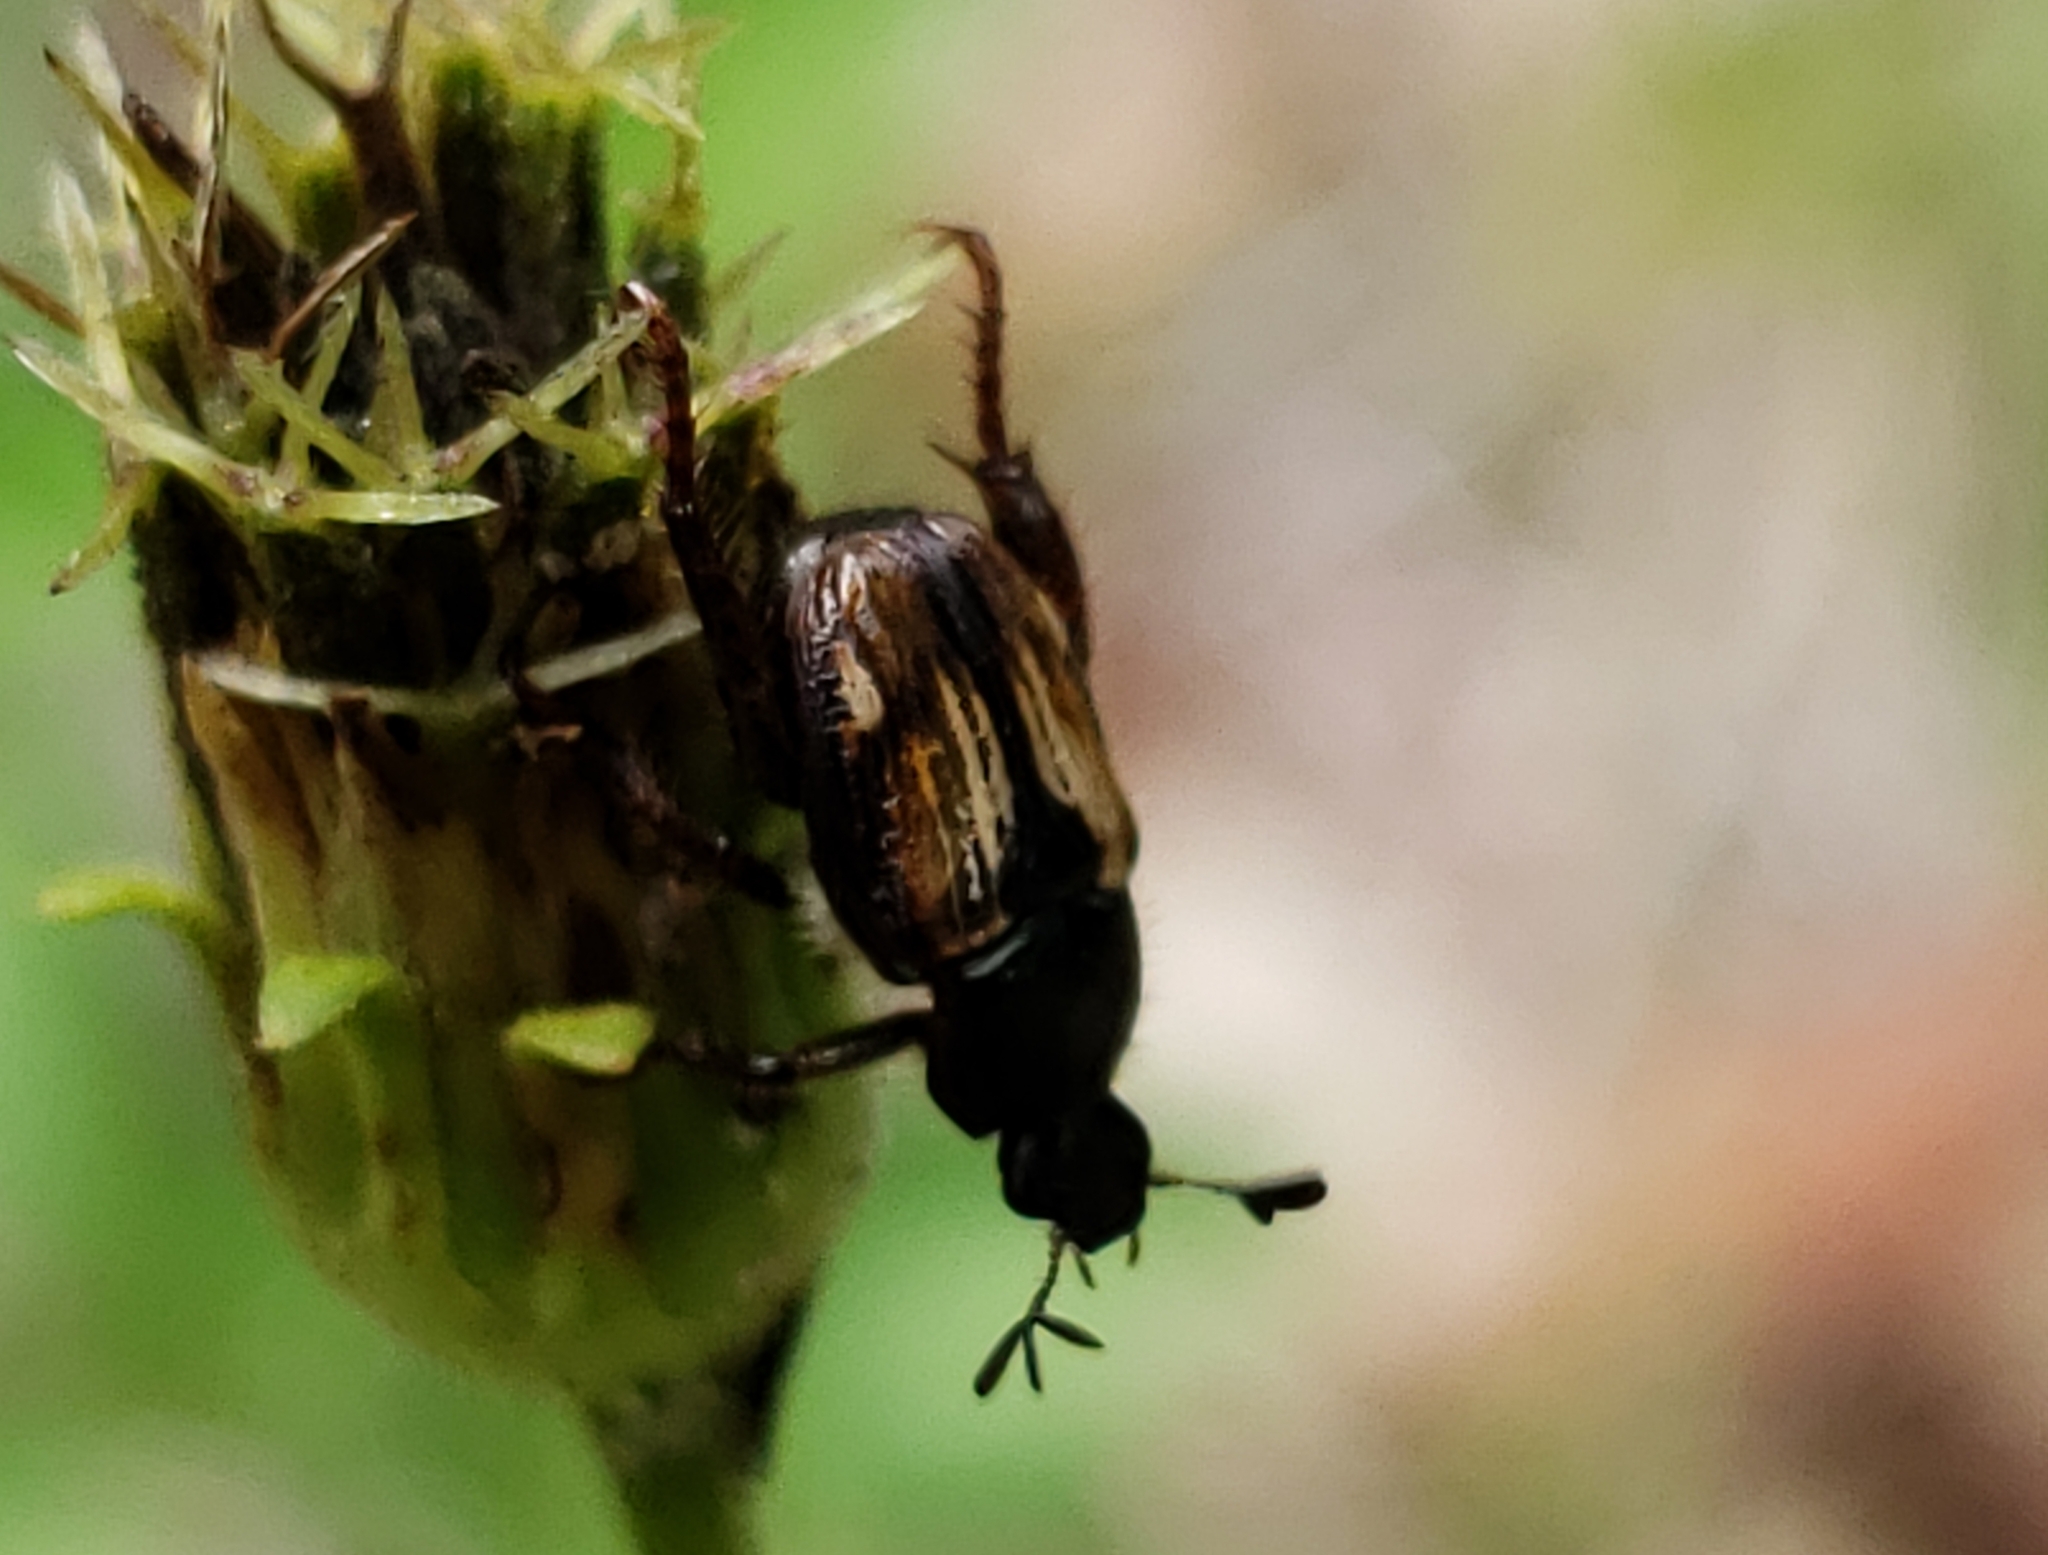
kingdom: Animalia
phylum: Arthropoda
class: Insecta
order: Coleoptera
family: Scarabaeidae
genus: Strigoderma
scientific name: Strigoderma pygmaea
